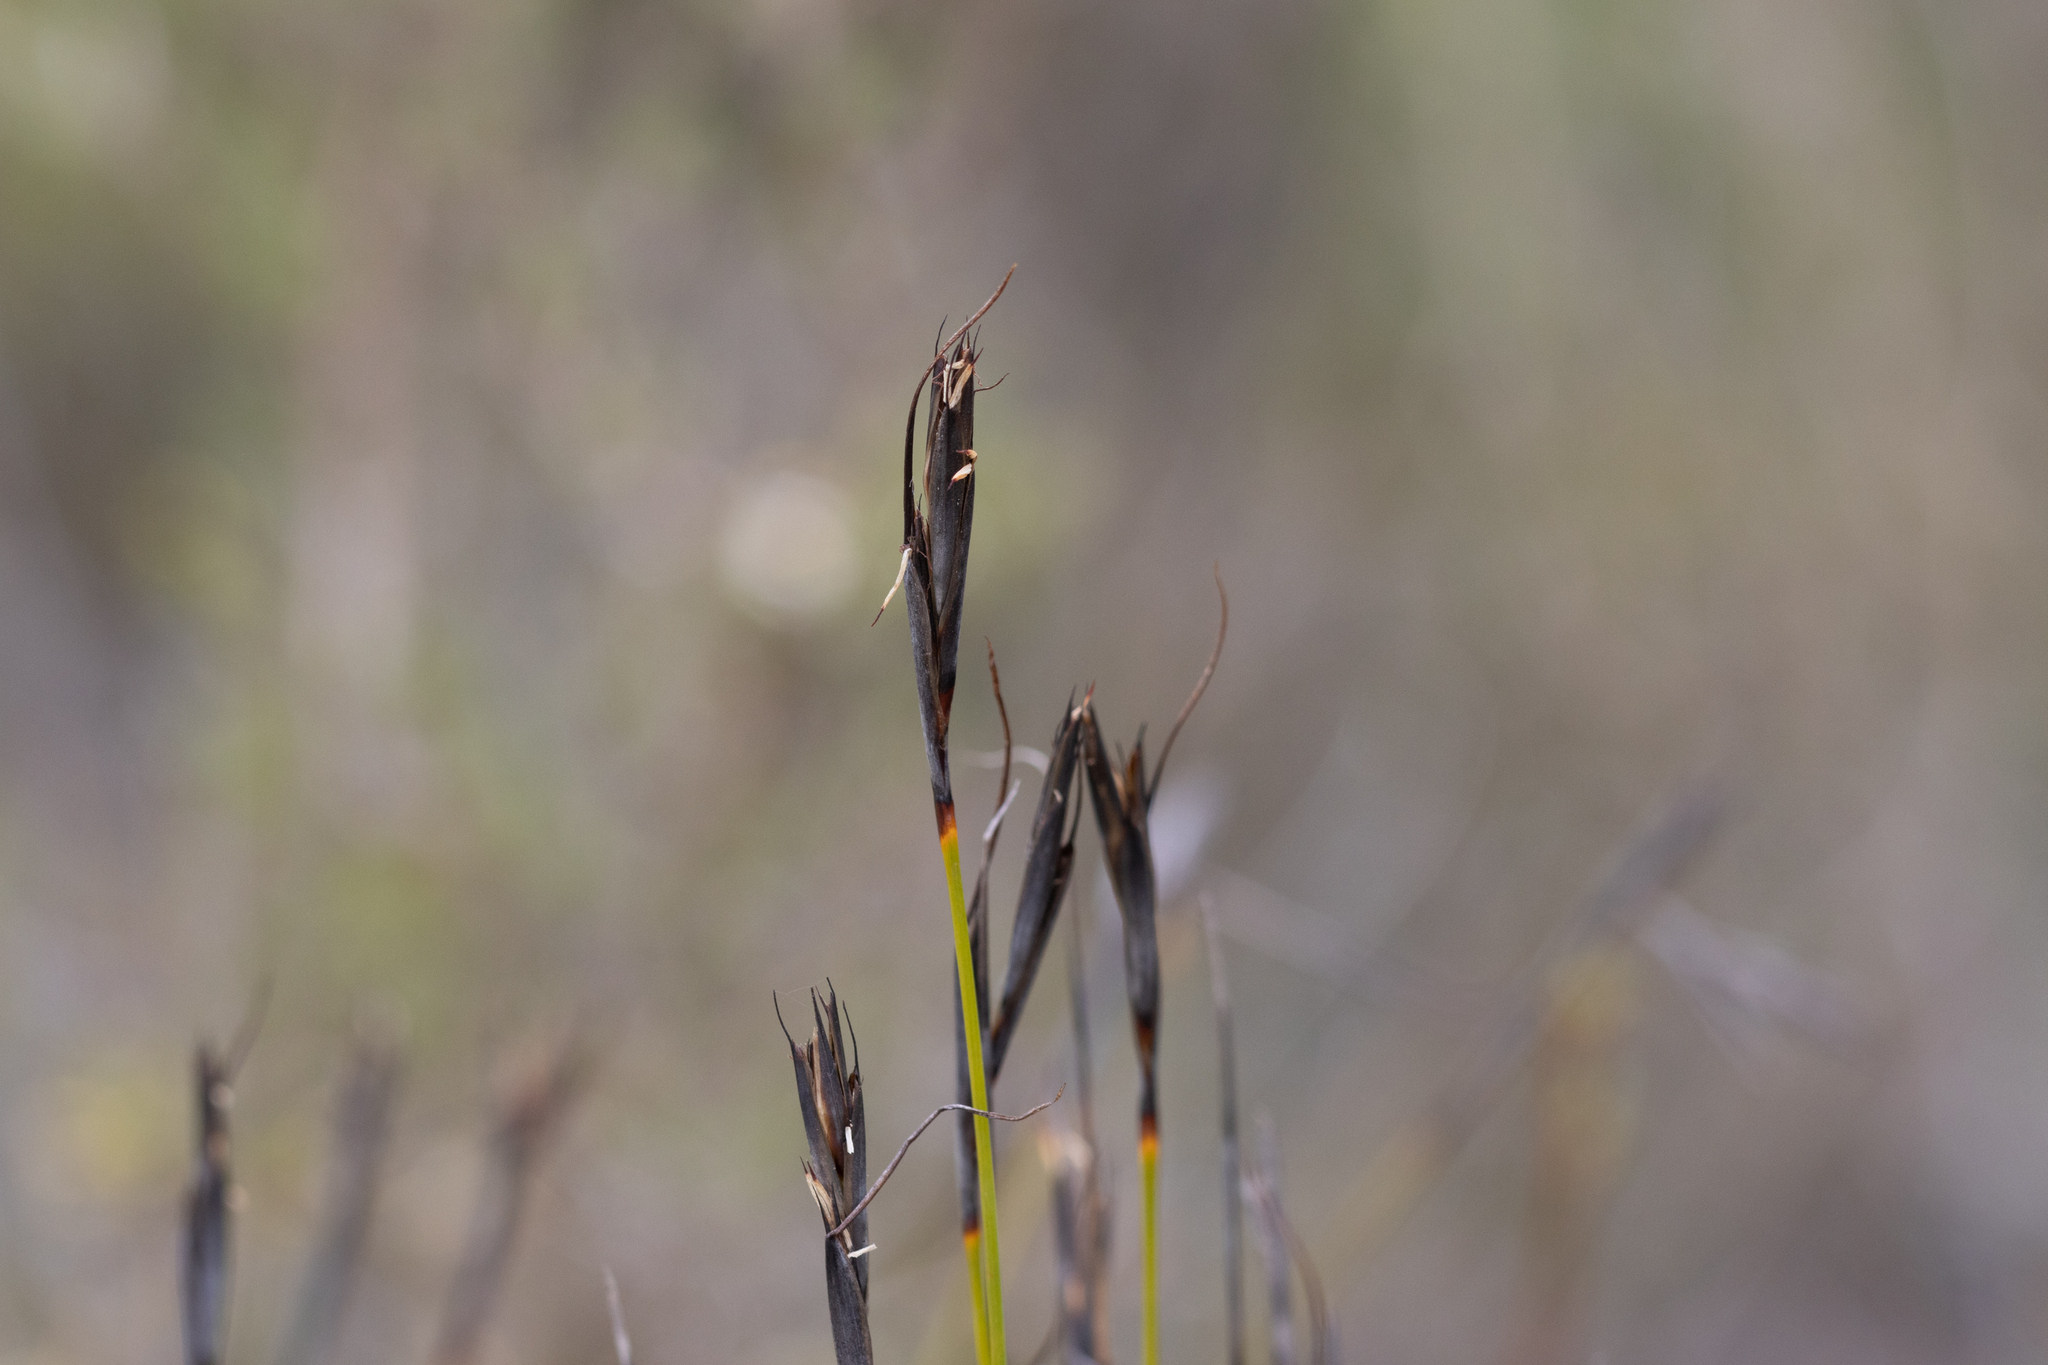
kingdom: Plantae
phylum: Tracheophyta
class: Liliopsida
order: Poales
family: Cyperaceae
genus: Lepidosperma
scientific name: Lepidosperma carphoides
